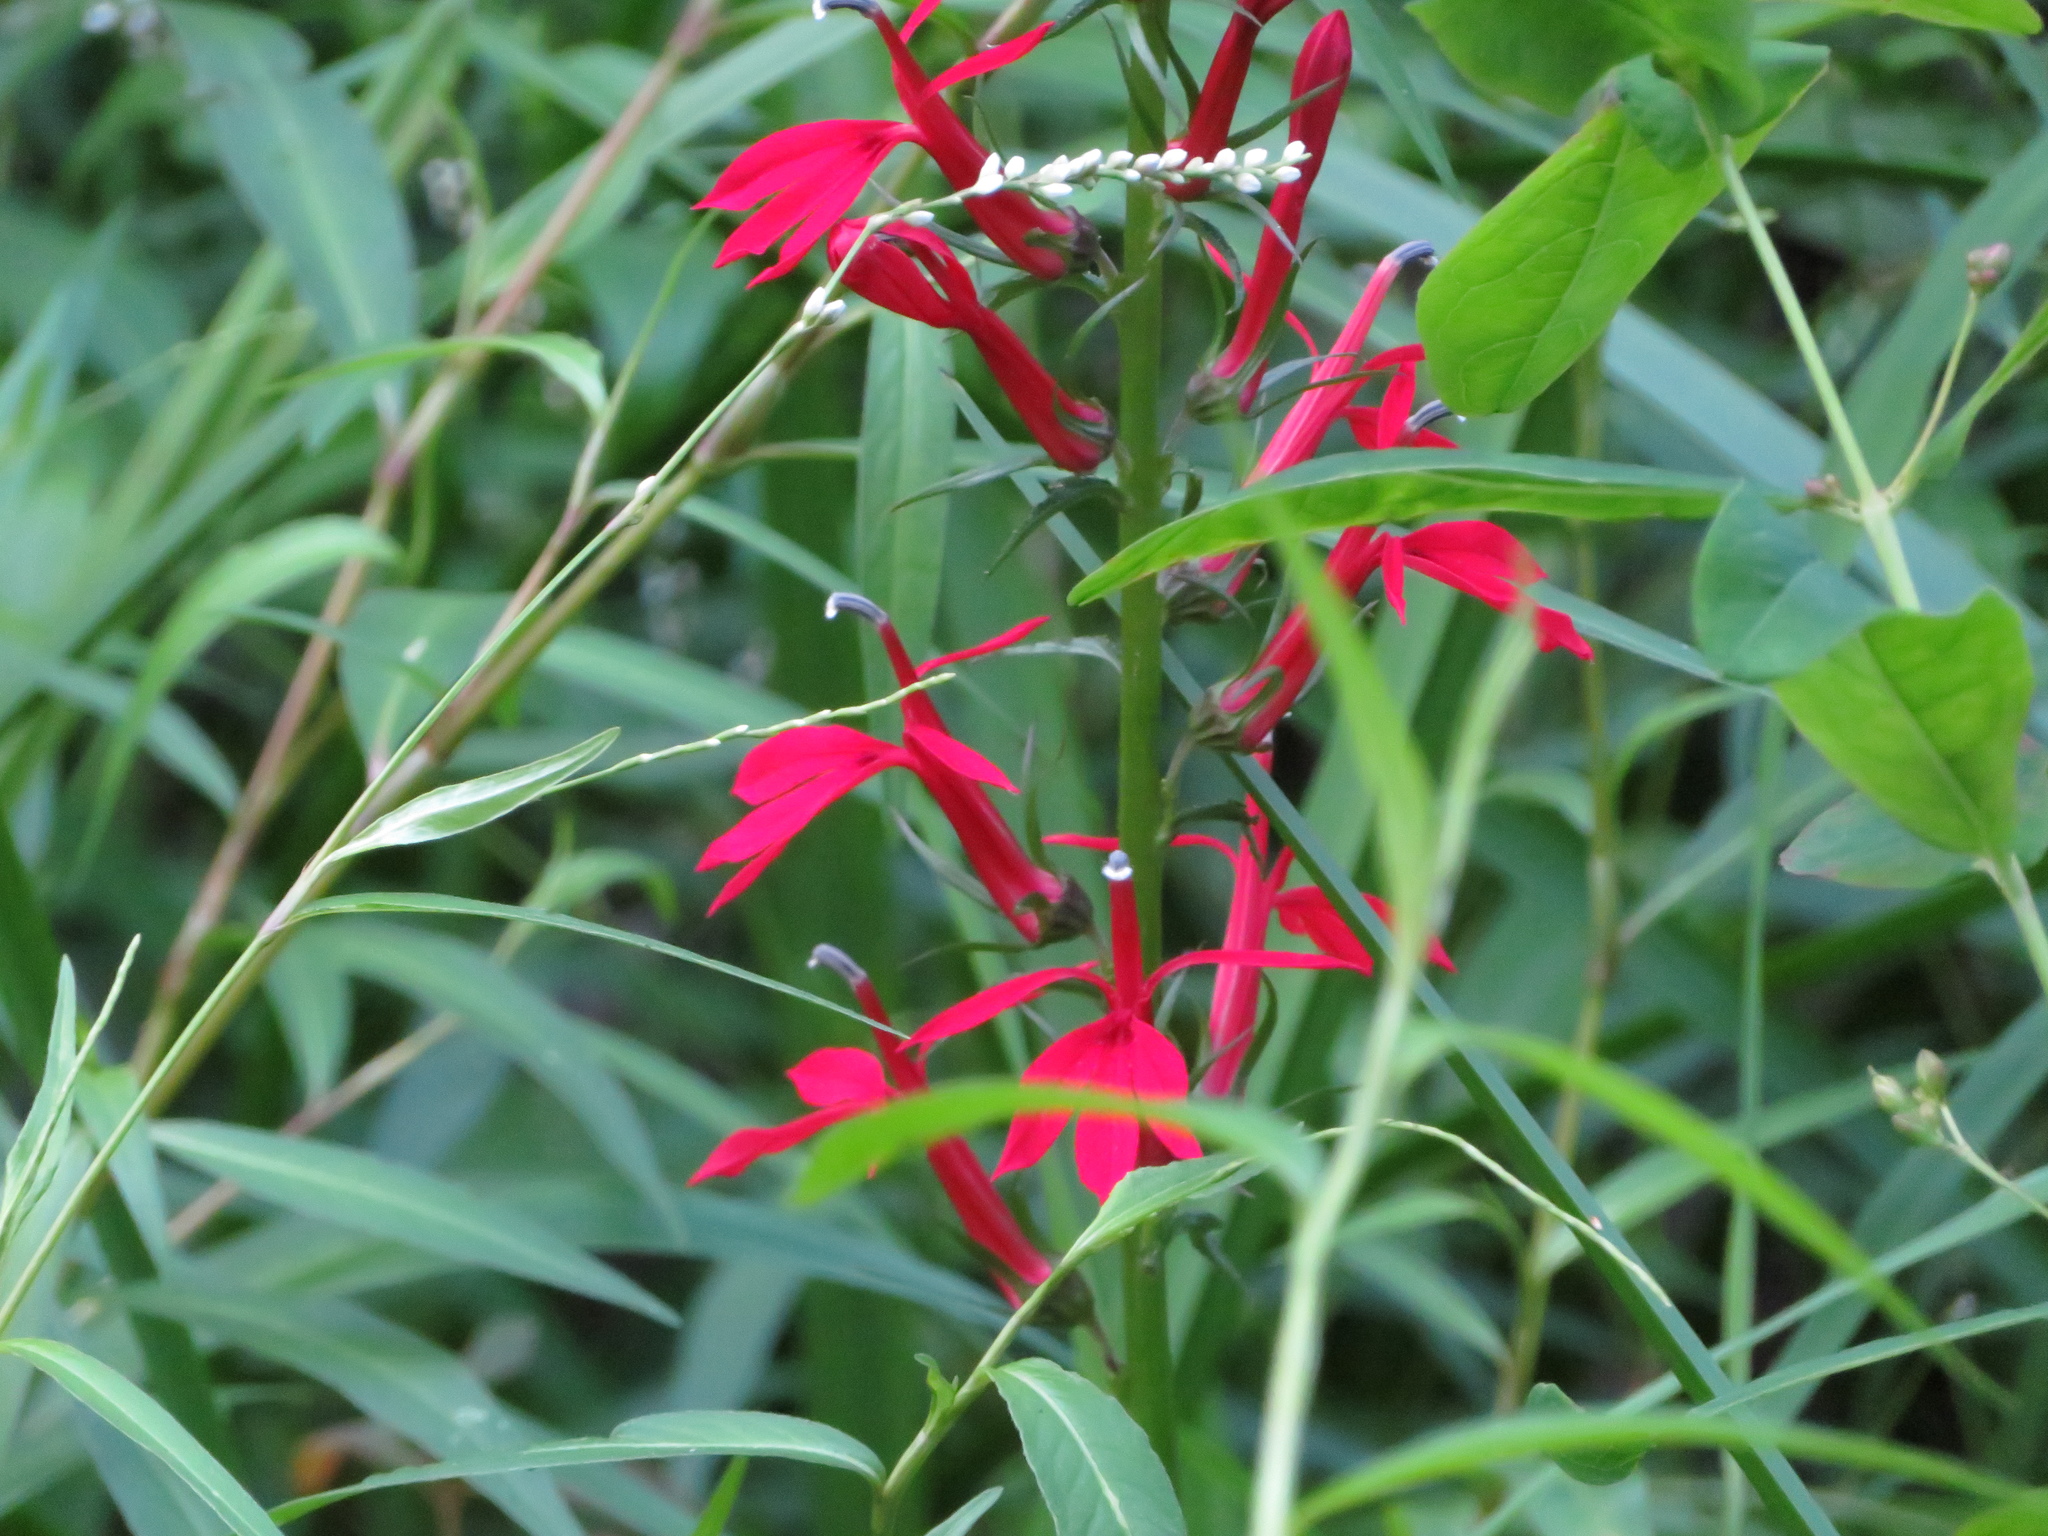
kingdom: Plantae
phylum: Tracheophyta
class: Magnoliopsida
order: Asterales
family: Campanulaceae
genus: Lobelia
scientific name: Lobelia cardinalis
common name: Cardinal flower
